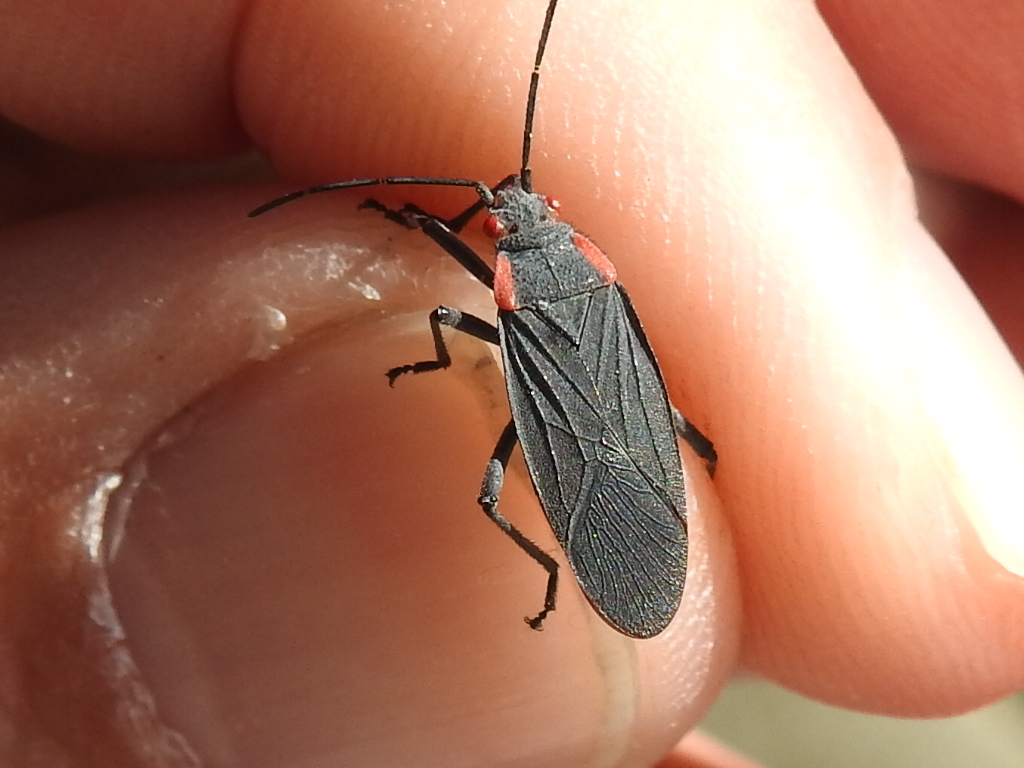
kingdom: Animalia
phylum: Arthropoda
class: Insecta
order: Hemiptera
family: Rhopalidae
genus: Jadera
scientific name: Jadera haematoloma
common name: Red-shouldered bug
